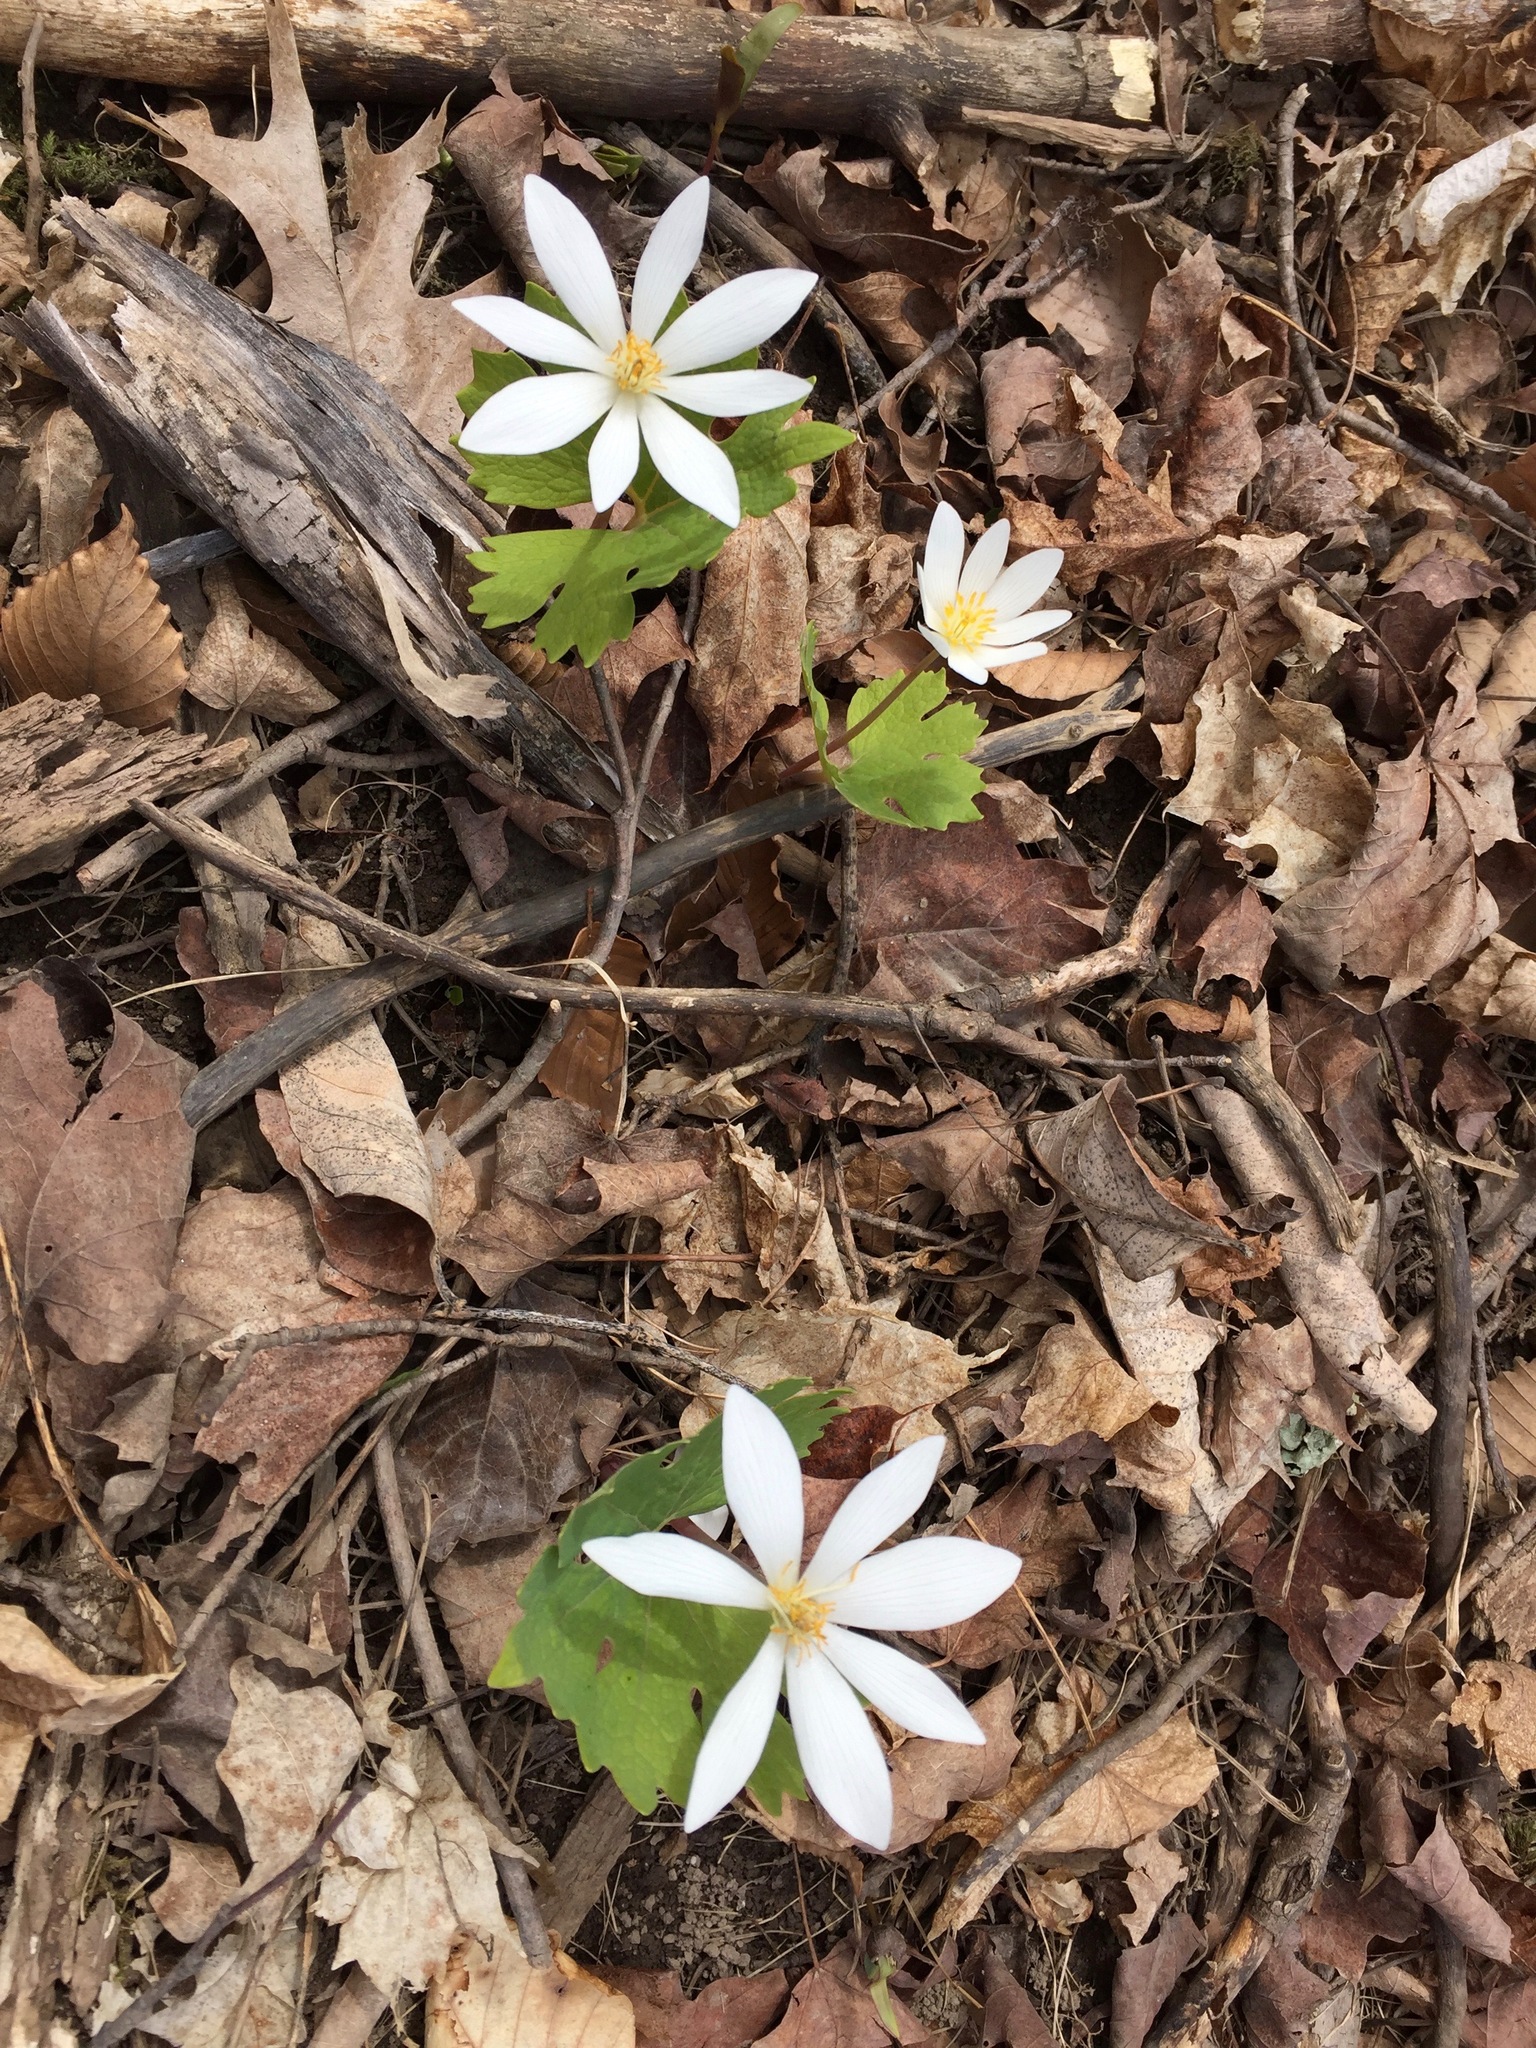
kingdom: Plantae
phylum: Tracheophyta
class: Magnoliopsida
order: Ranunculales
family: Papaveraceae
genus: Sanguinaria
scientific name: Sanguinaria canadensis
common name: Bloodroot
